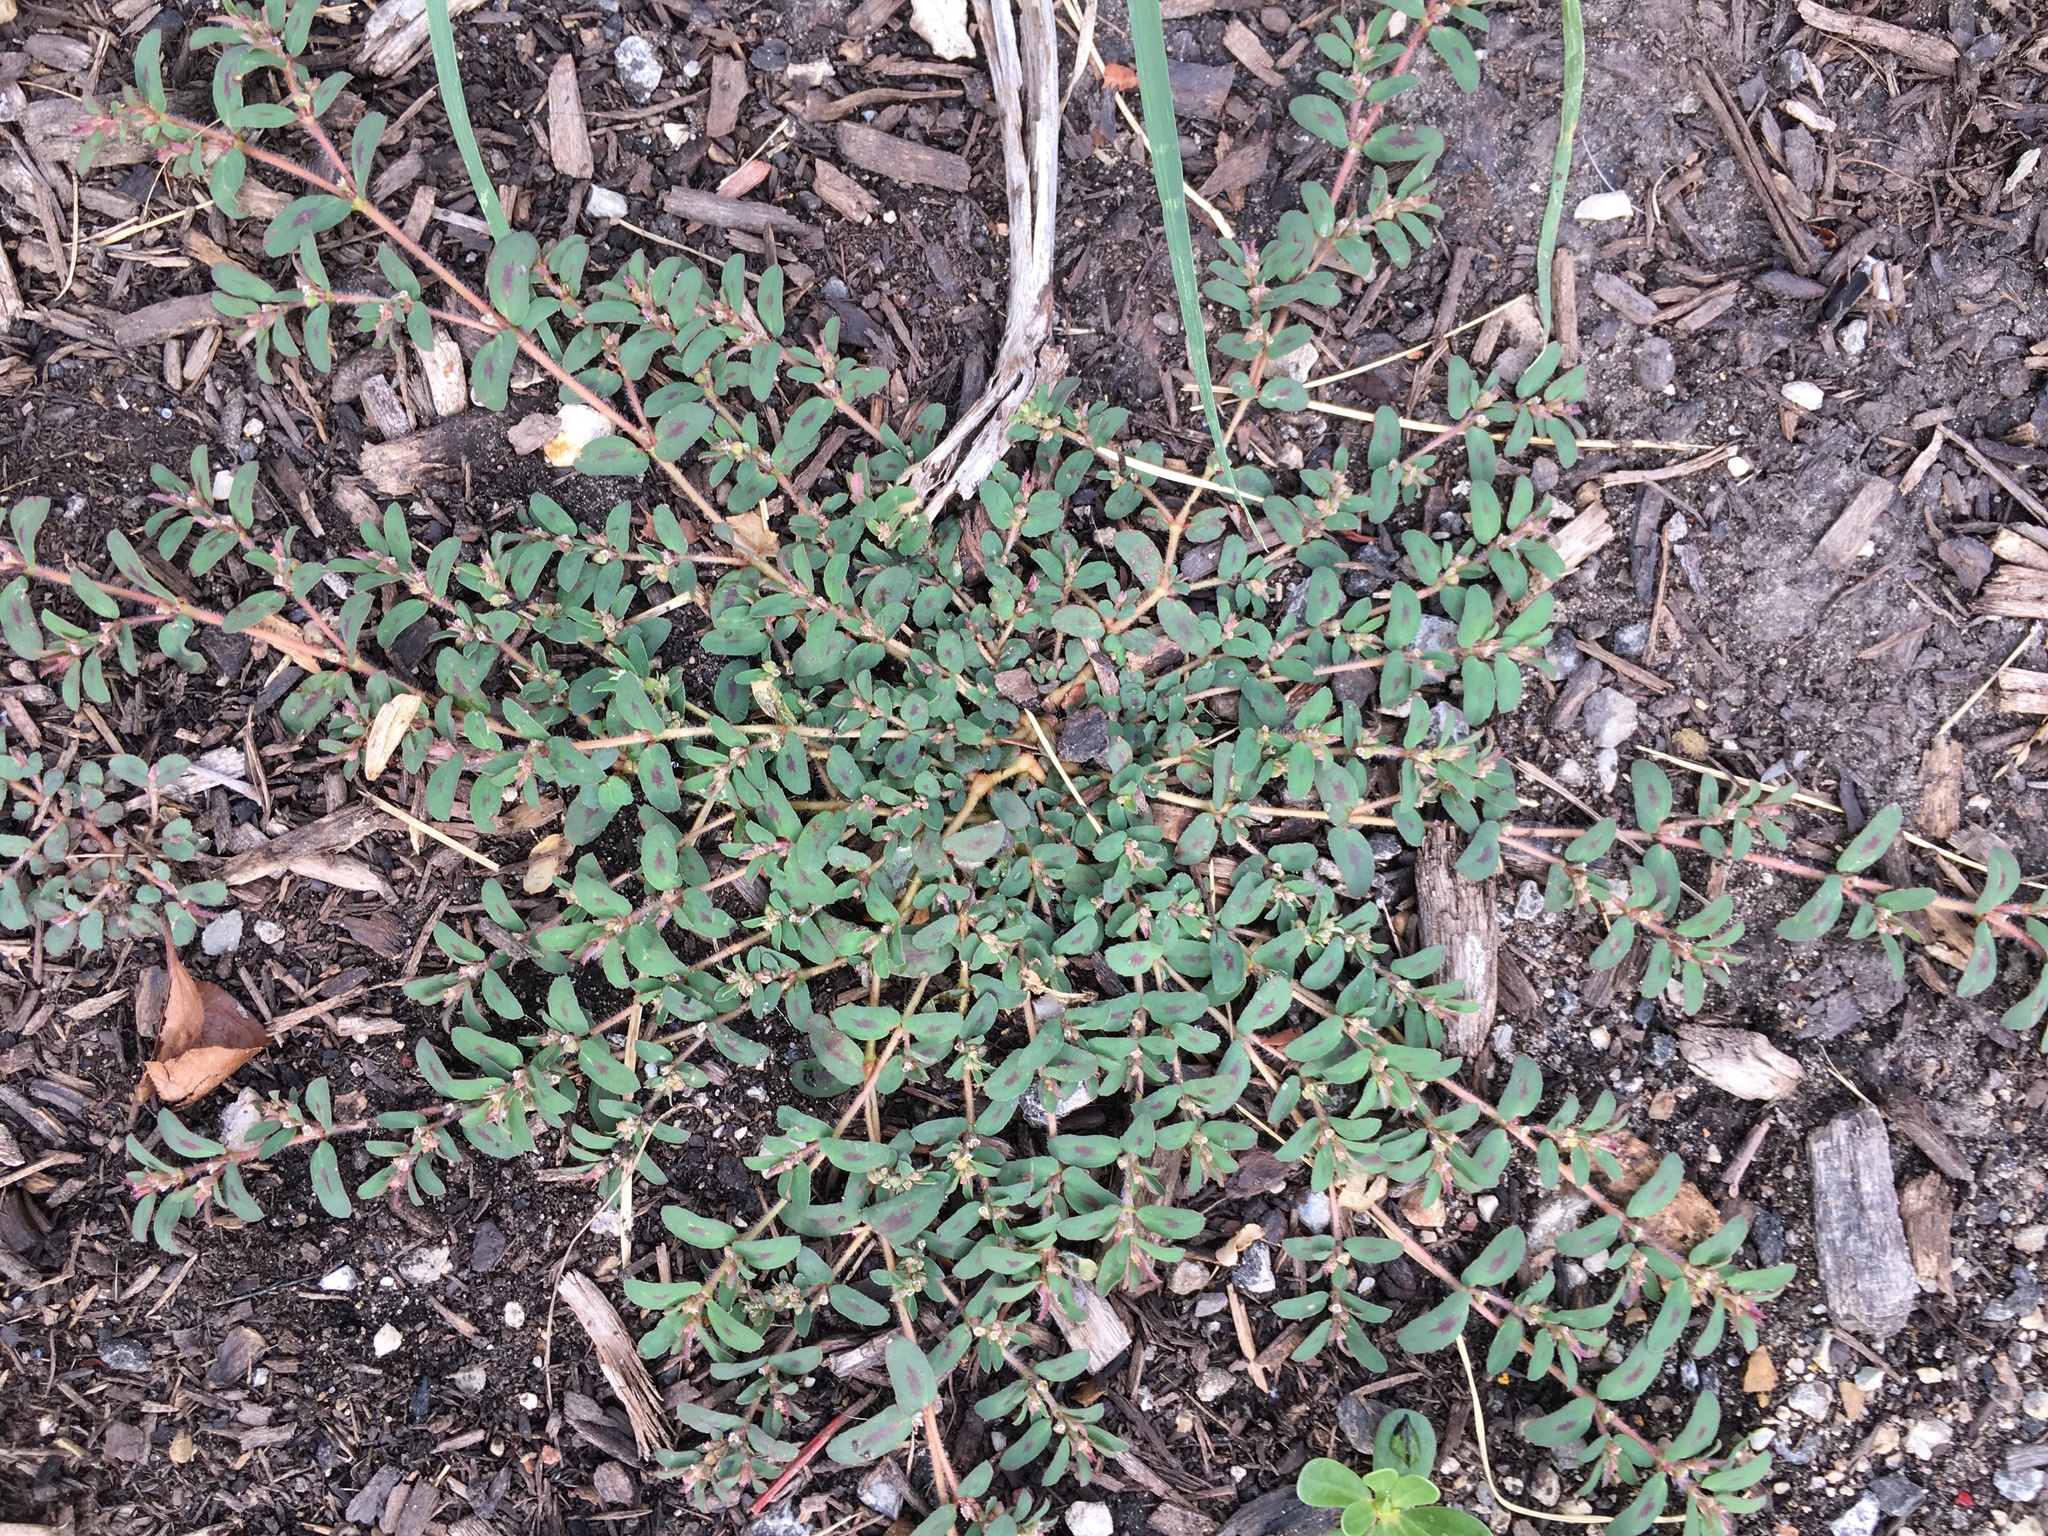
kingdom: Plantae
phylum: Tracheophyta
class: Magnoliopsida
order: Malpighiales
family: Euphorbiaceae
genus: Euphorbia
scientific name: Euphorbia maculata
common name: Spotted spurge
